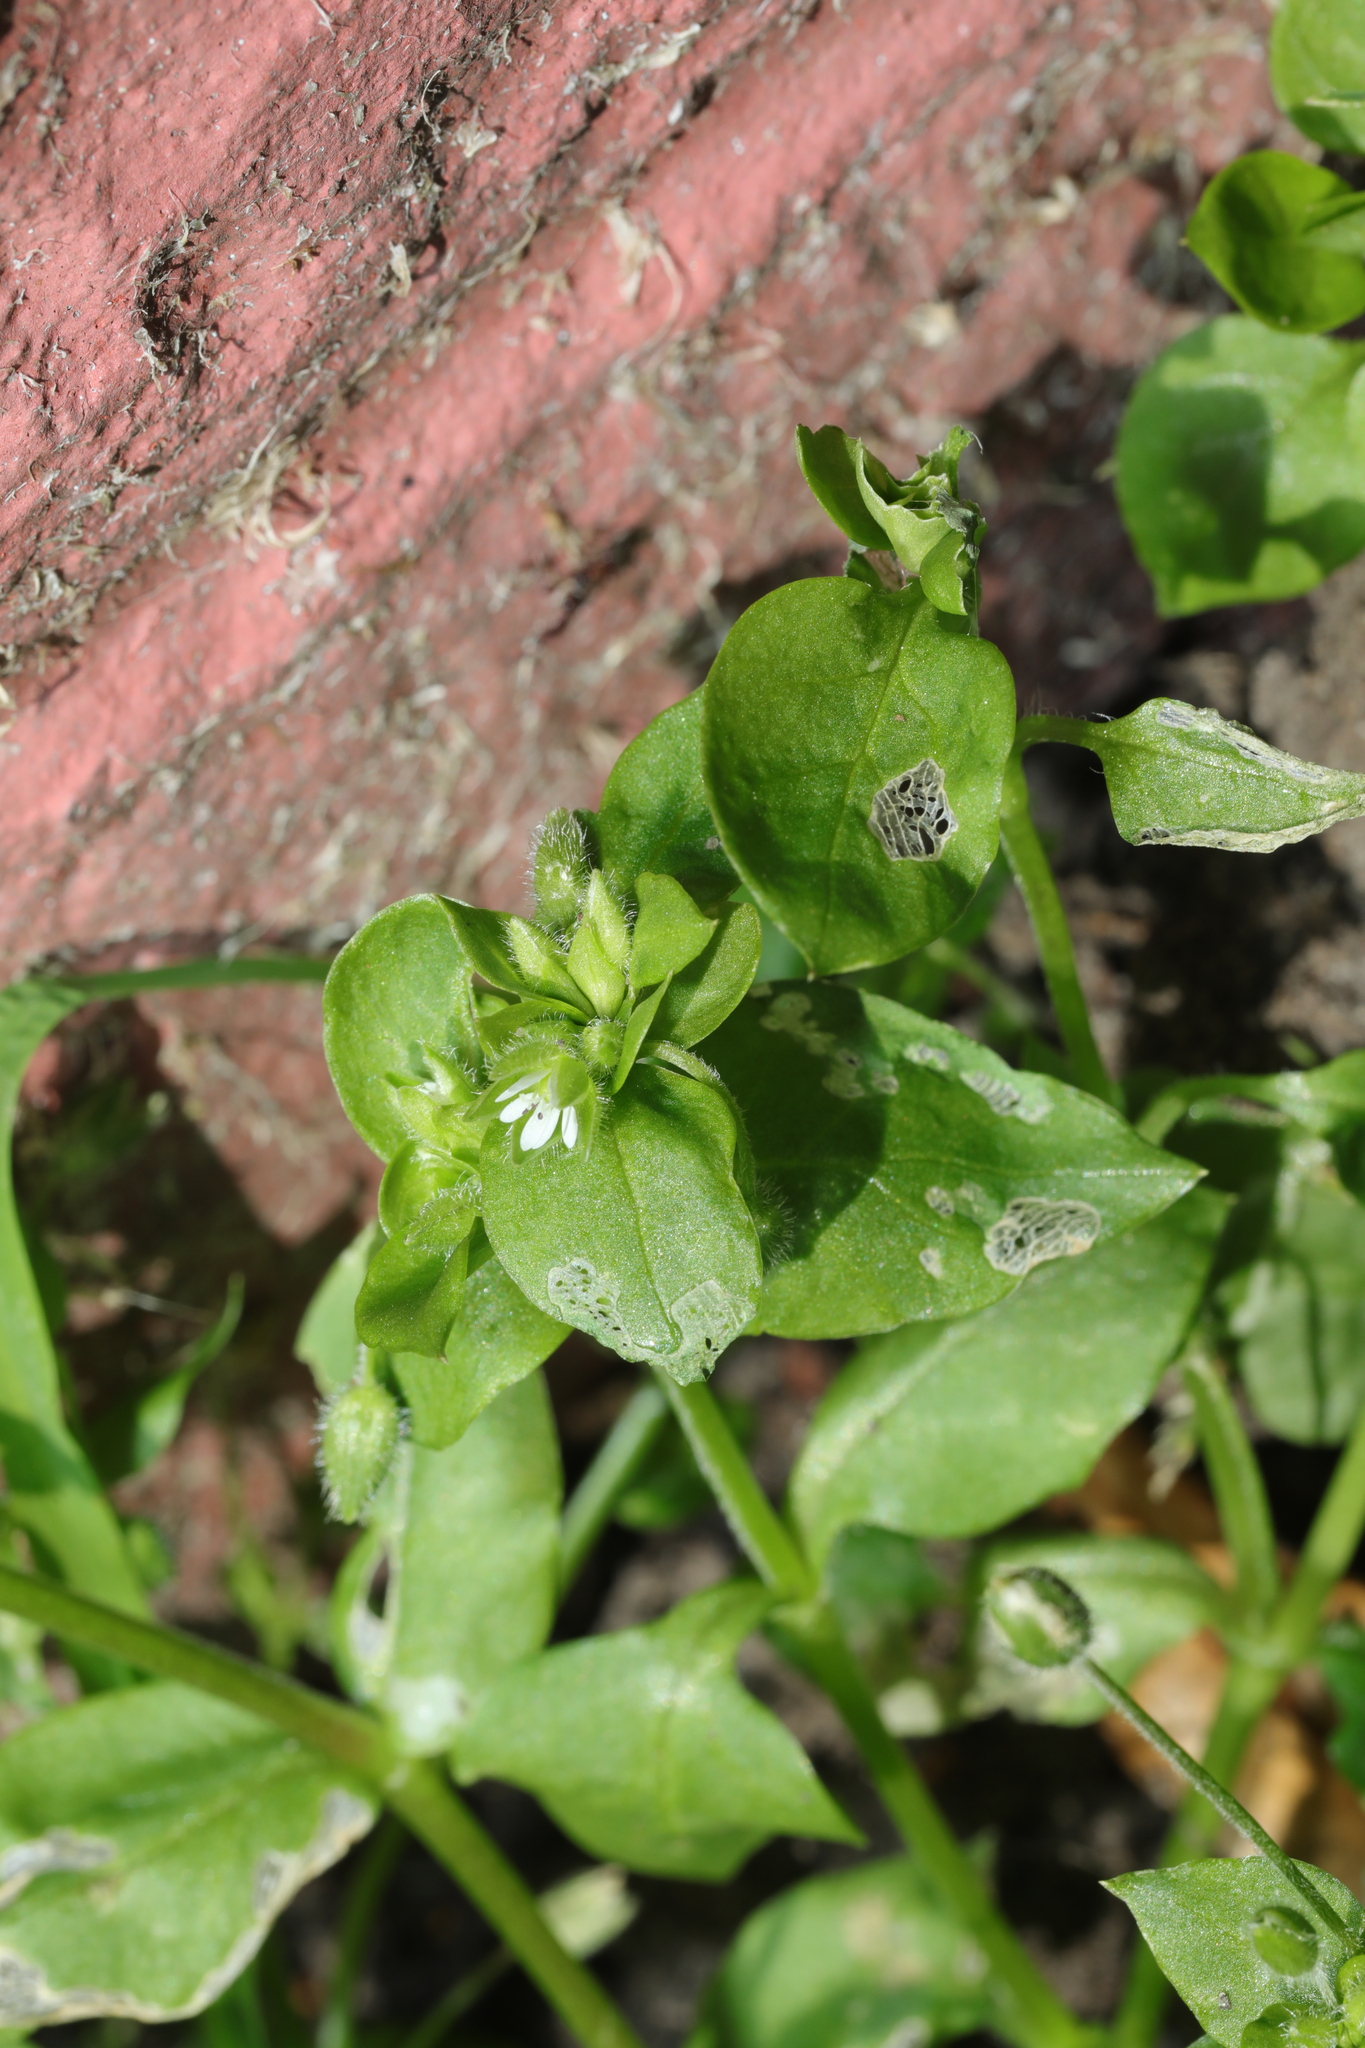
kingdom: Plantae
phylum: Tracheophyta
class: Magnoliopsida
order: Caryophyllales
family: Caryophyllaceae
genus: Stellaria
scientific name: Stellaria media
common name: Common chickweed
